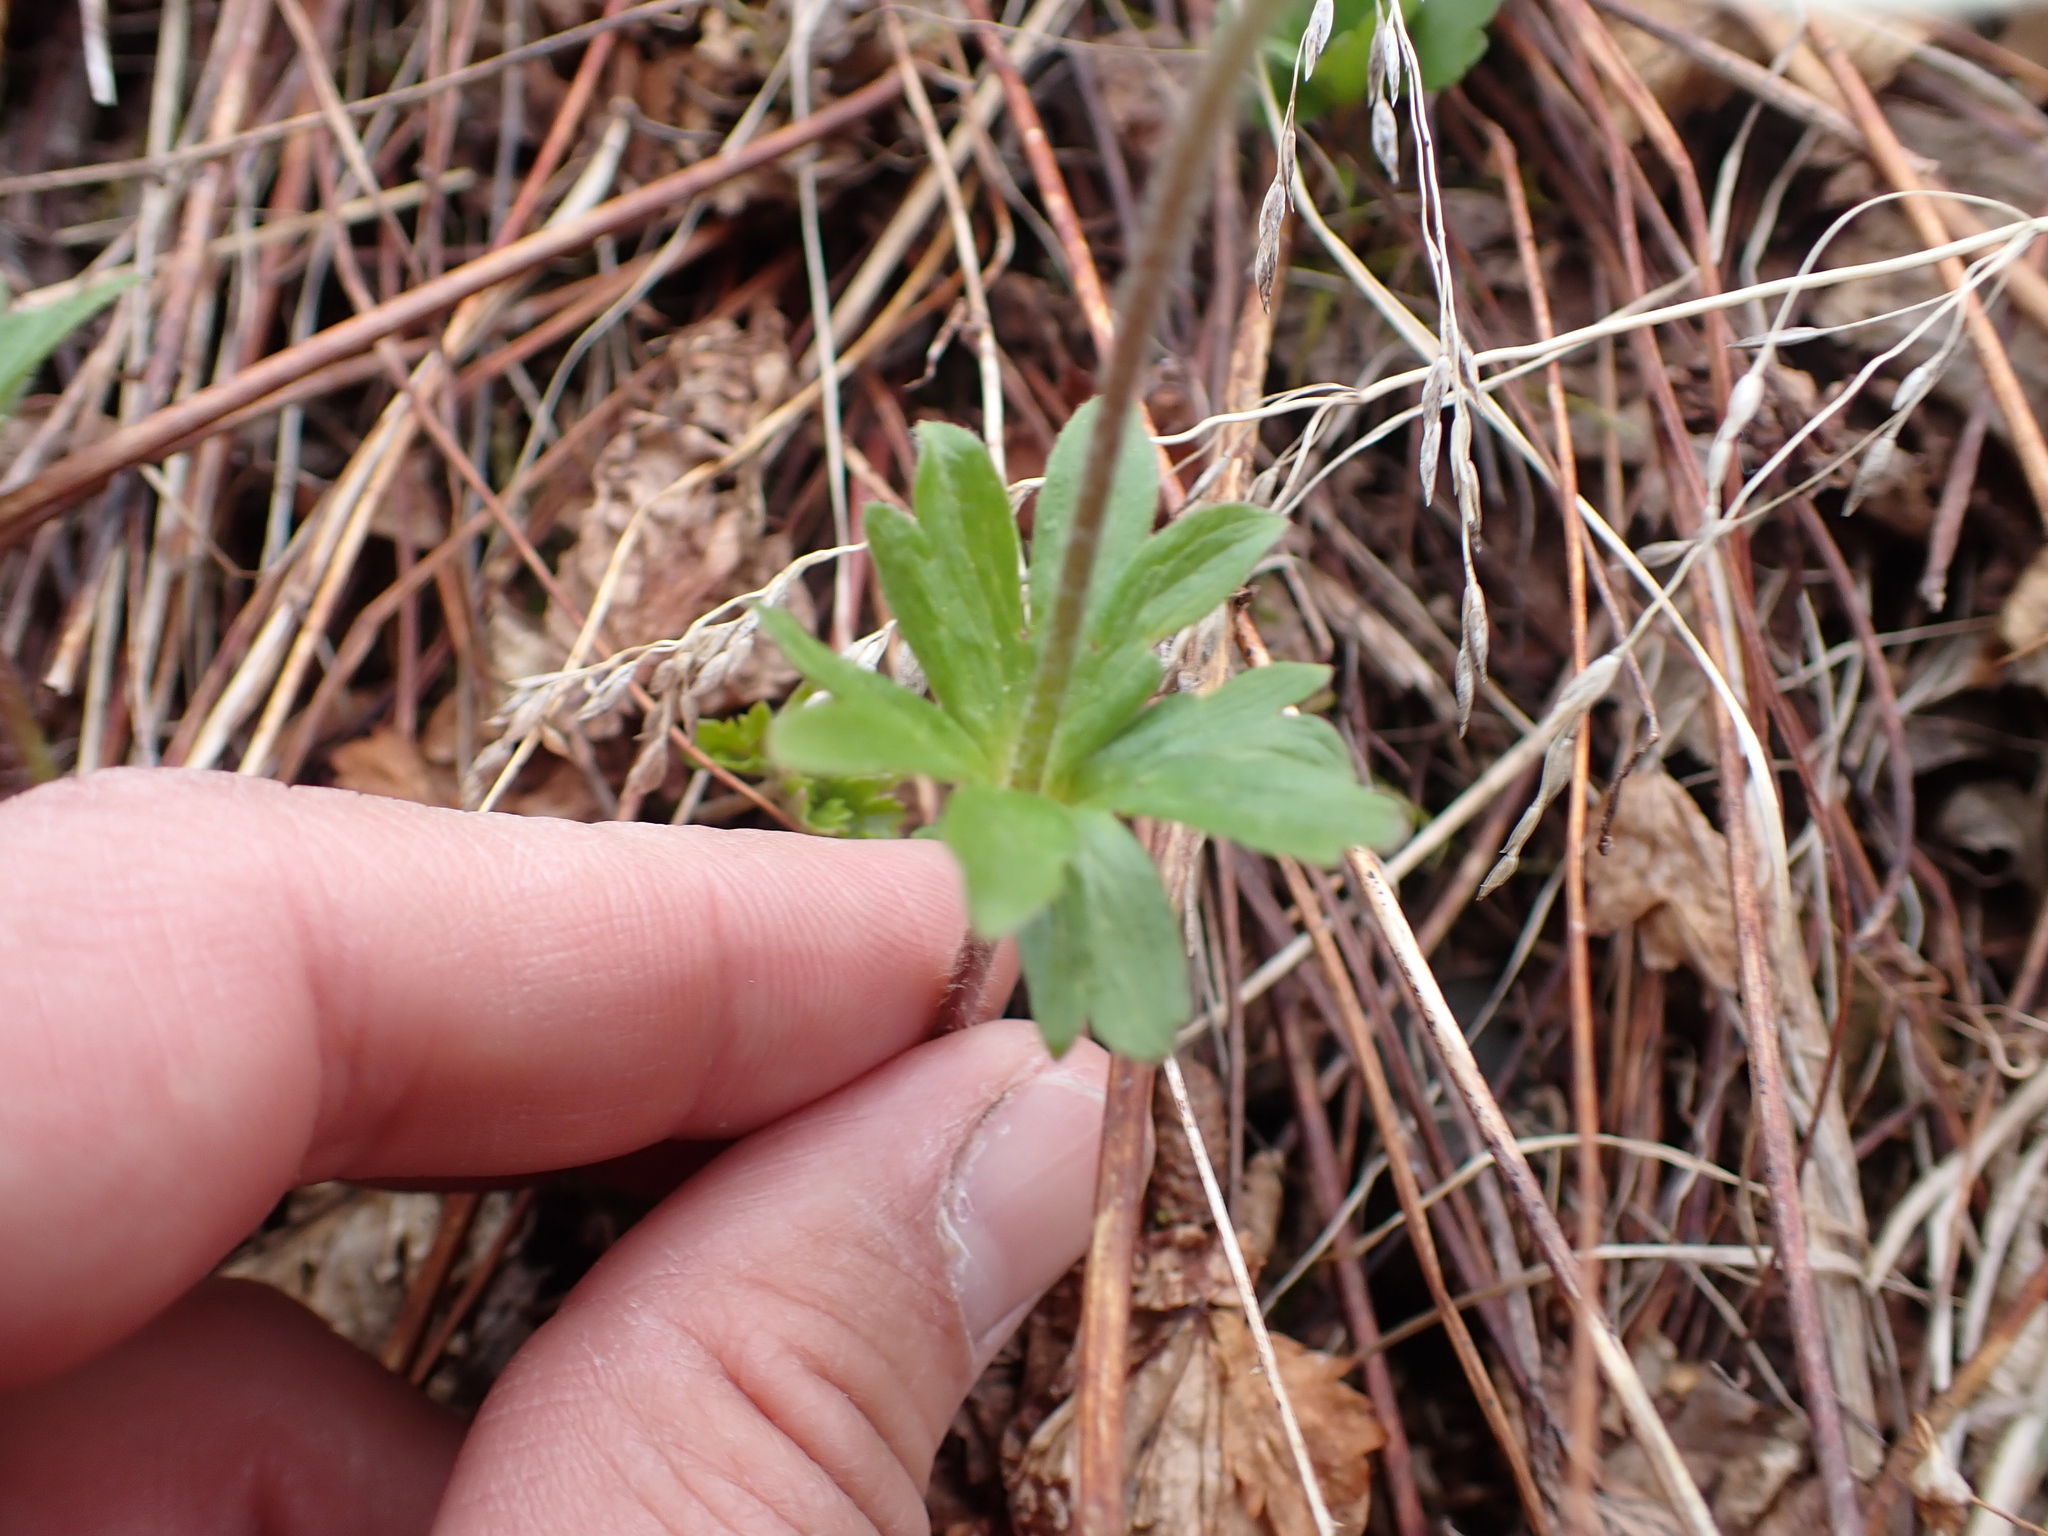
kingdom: Plantae
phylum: Tracheophyta
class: Magnoliopsida
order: Ranunculales
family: Ranunculaceae
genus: Anemone
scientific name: Anemone parviflora
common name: Northern anemone
